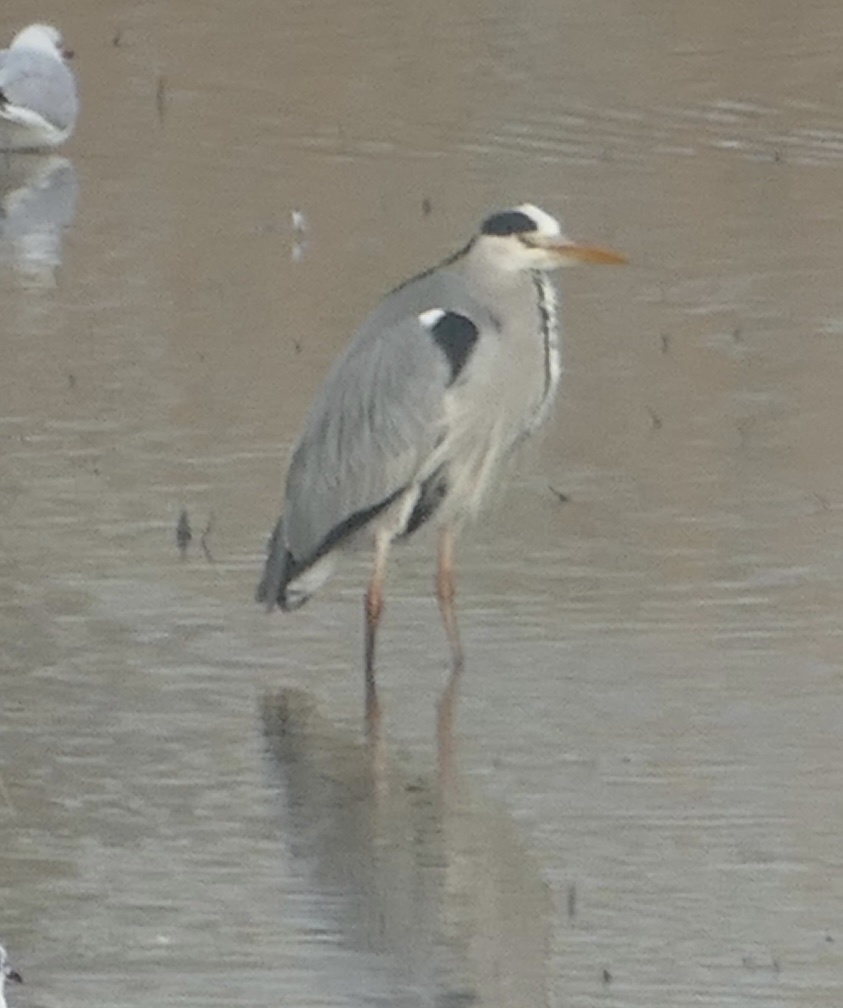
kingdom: Animalia
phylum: Chordata
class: Aves
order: Pelecaniformes
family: Ardeidae
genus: Ardea
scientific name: Ardea cinerea
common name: Grey heron
